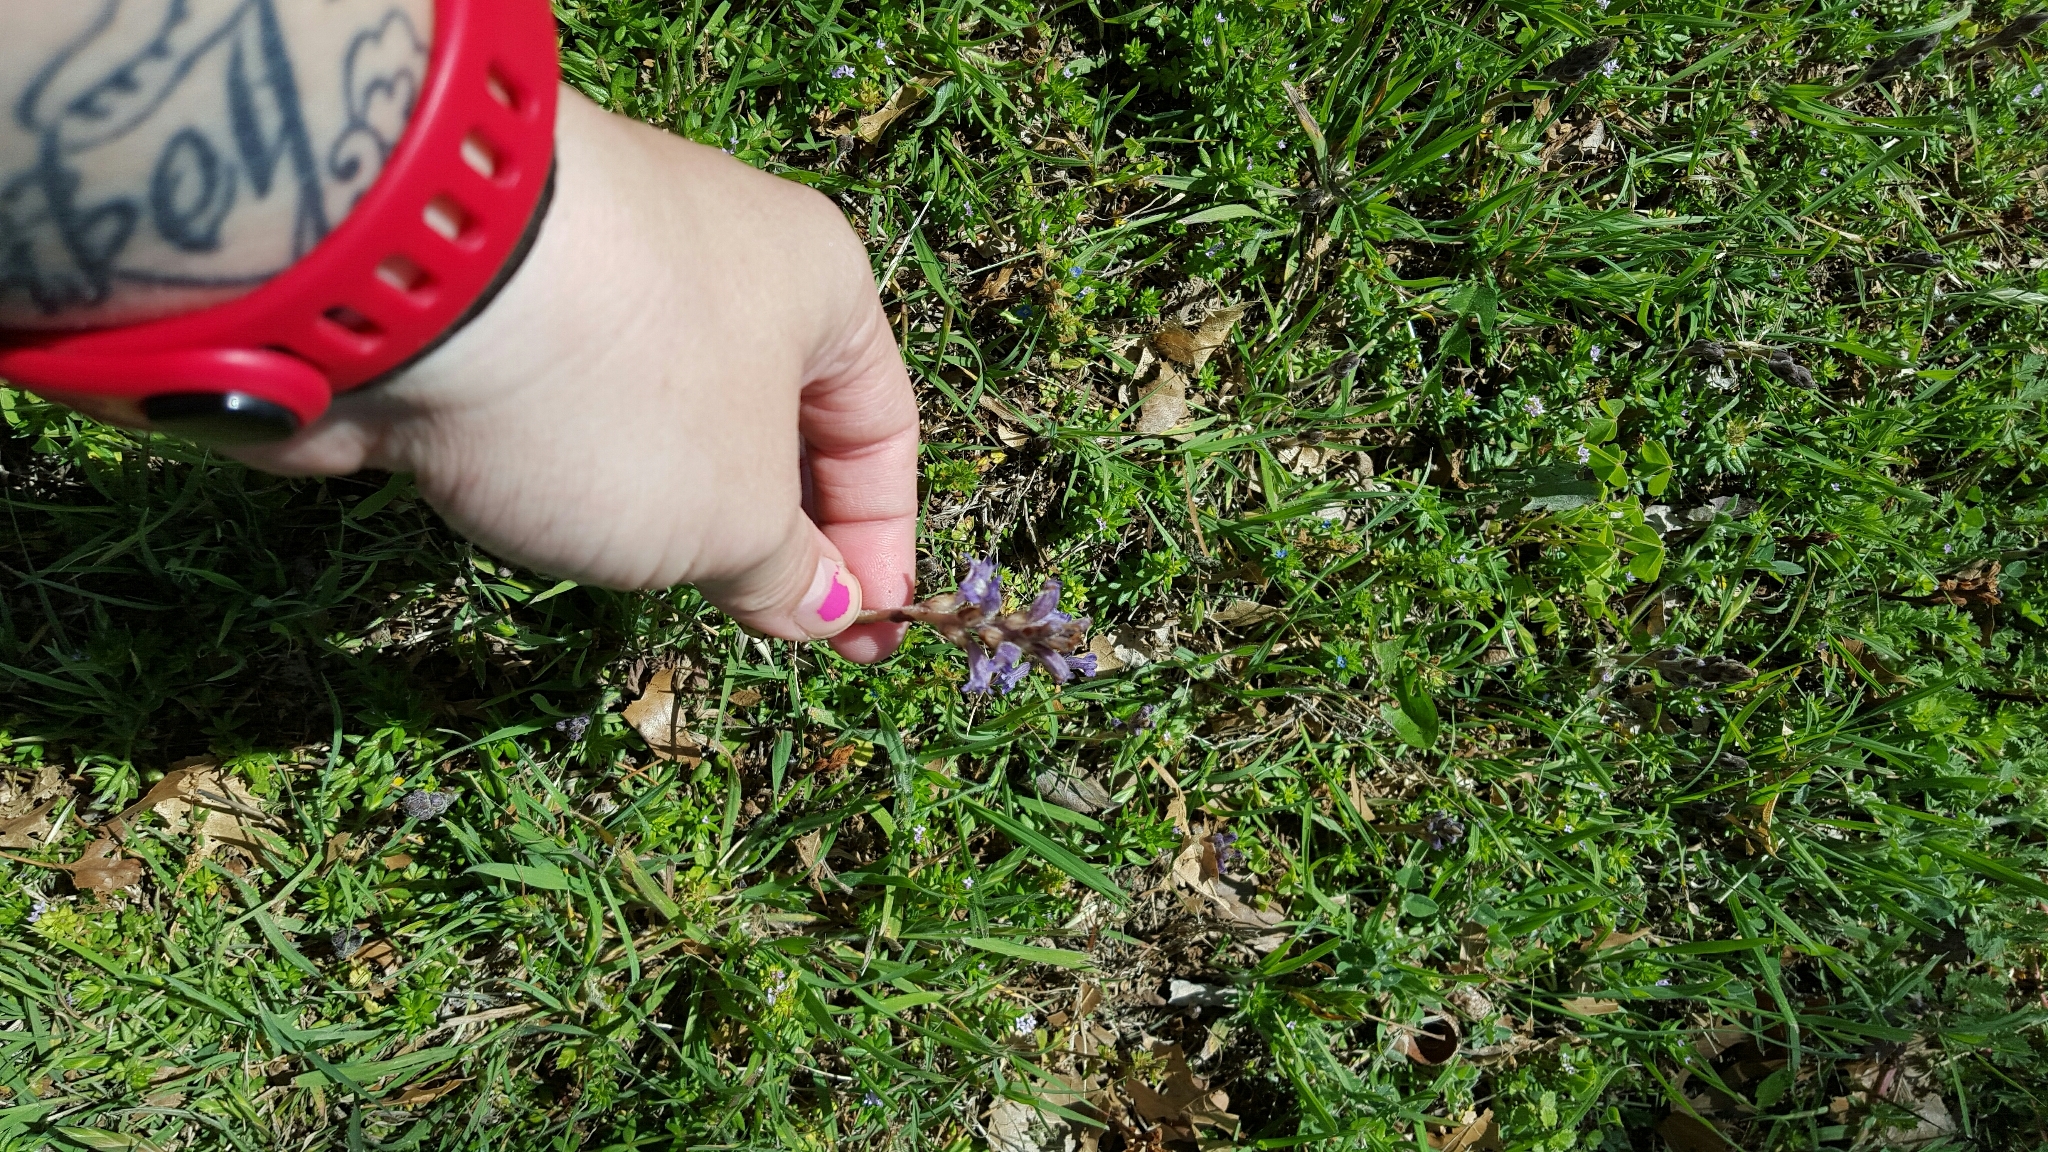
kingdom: Plantae
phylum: Tracheophyta
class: Magnoliopsida
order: Lamiales
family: Orobanchaceae
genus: Phelipanche
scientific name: Phelipanche ramosa
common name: Branched broomrape
